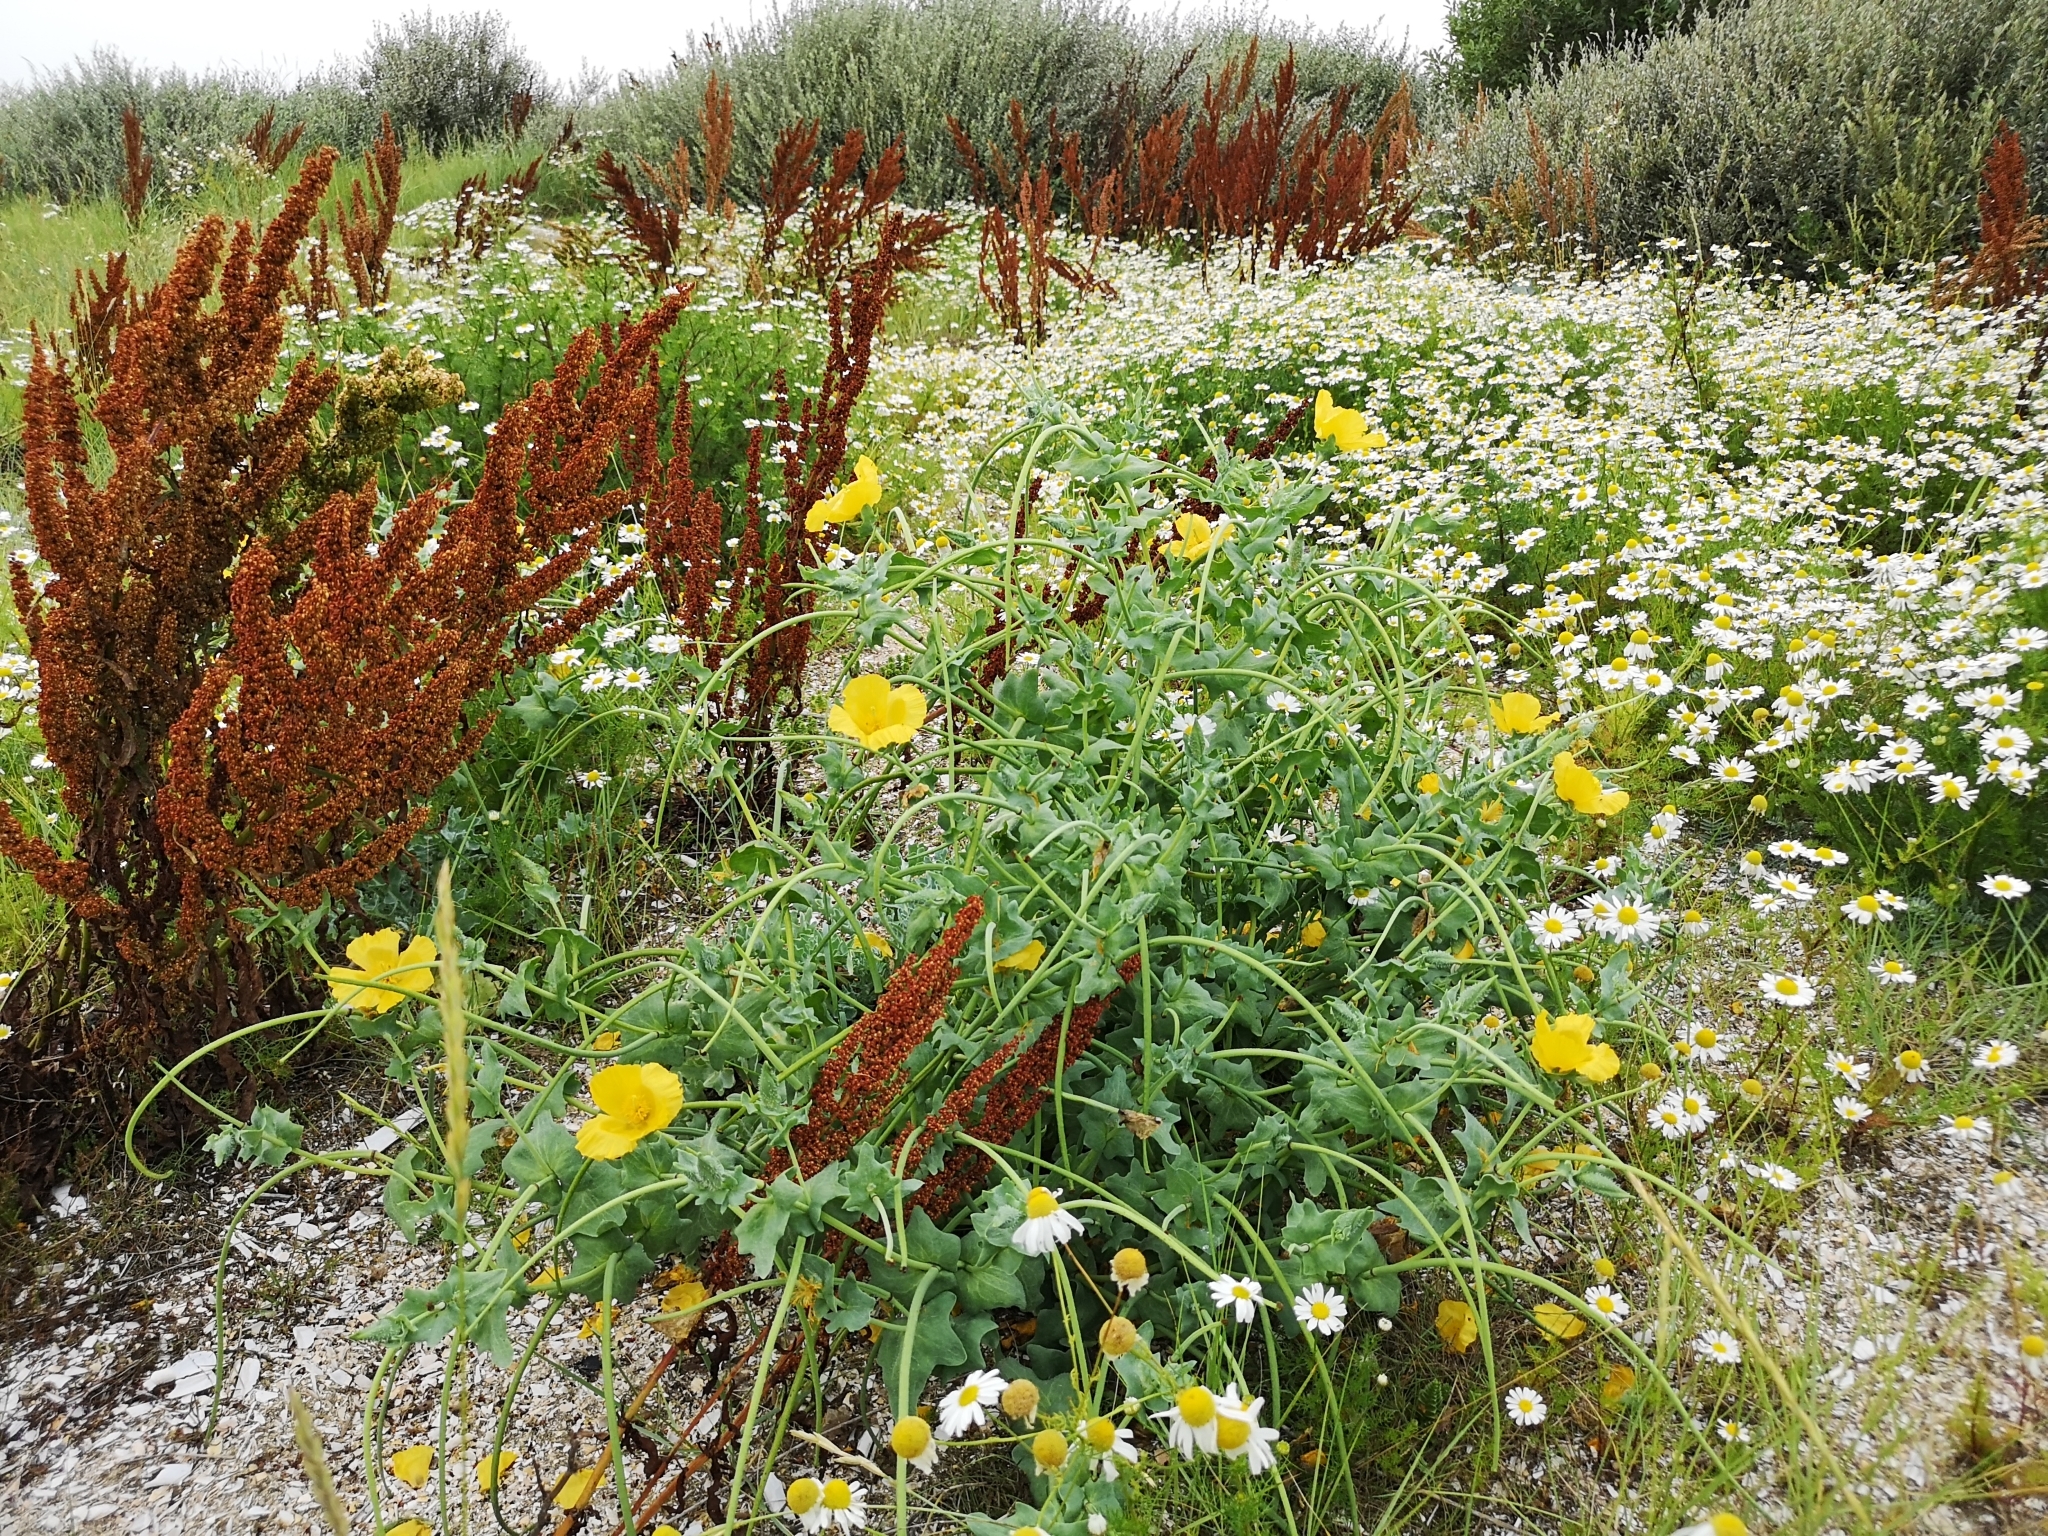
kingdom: Plantae
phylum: Tracheophyta
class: Magnoliopsida
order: Ranunculales
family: Papaveraceae
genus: Glaucium
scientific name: Glaucium flavum
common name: Yellow horned-poppy
